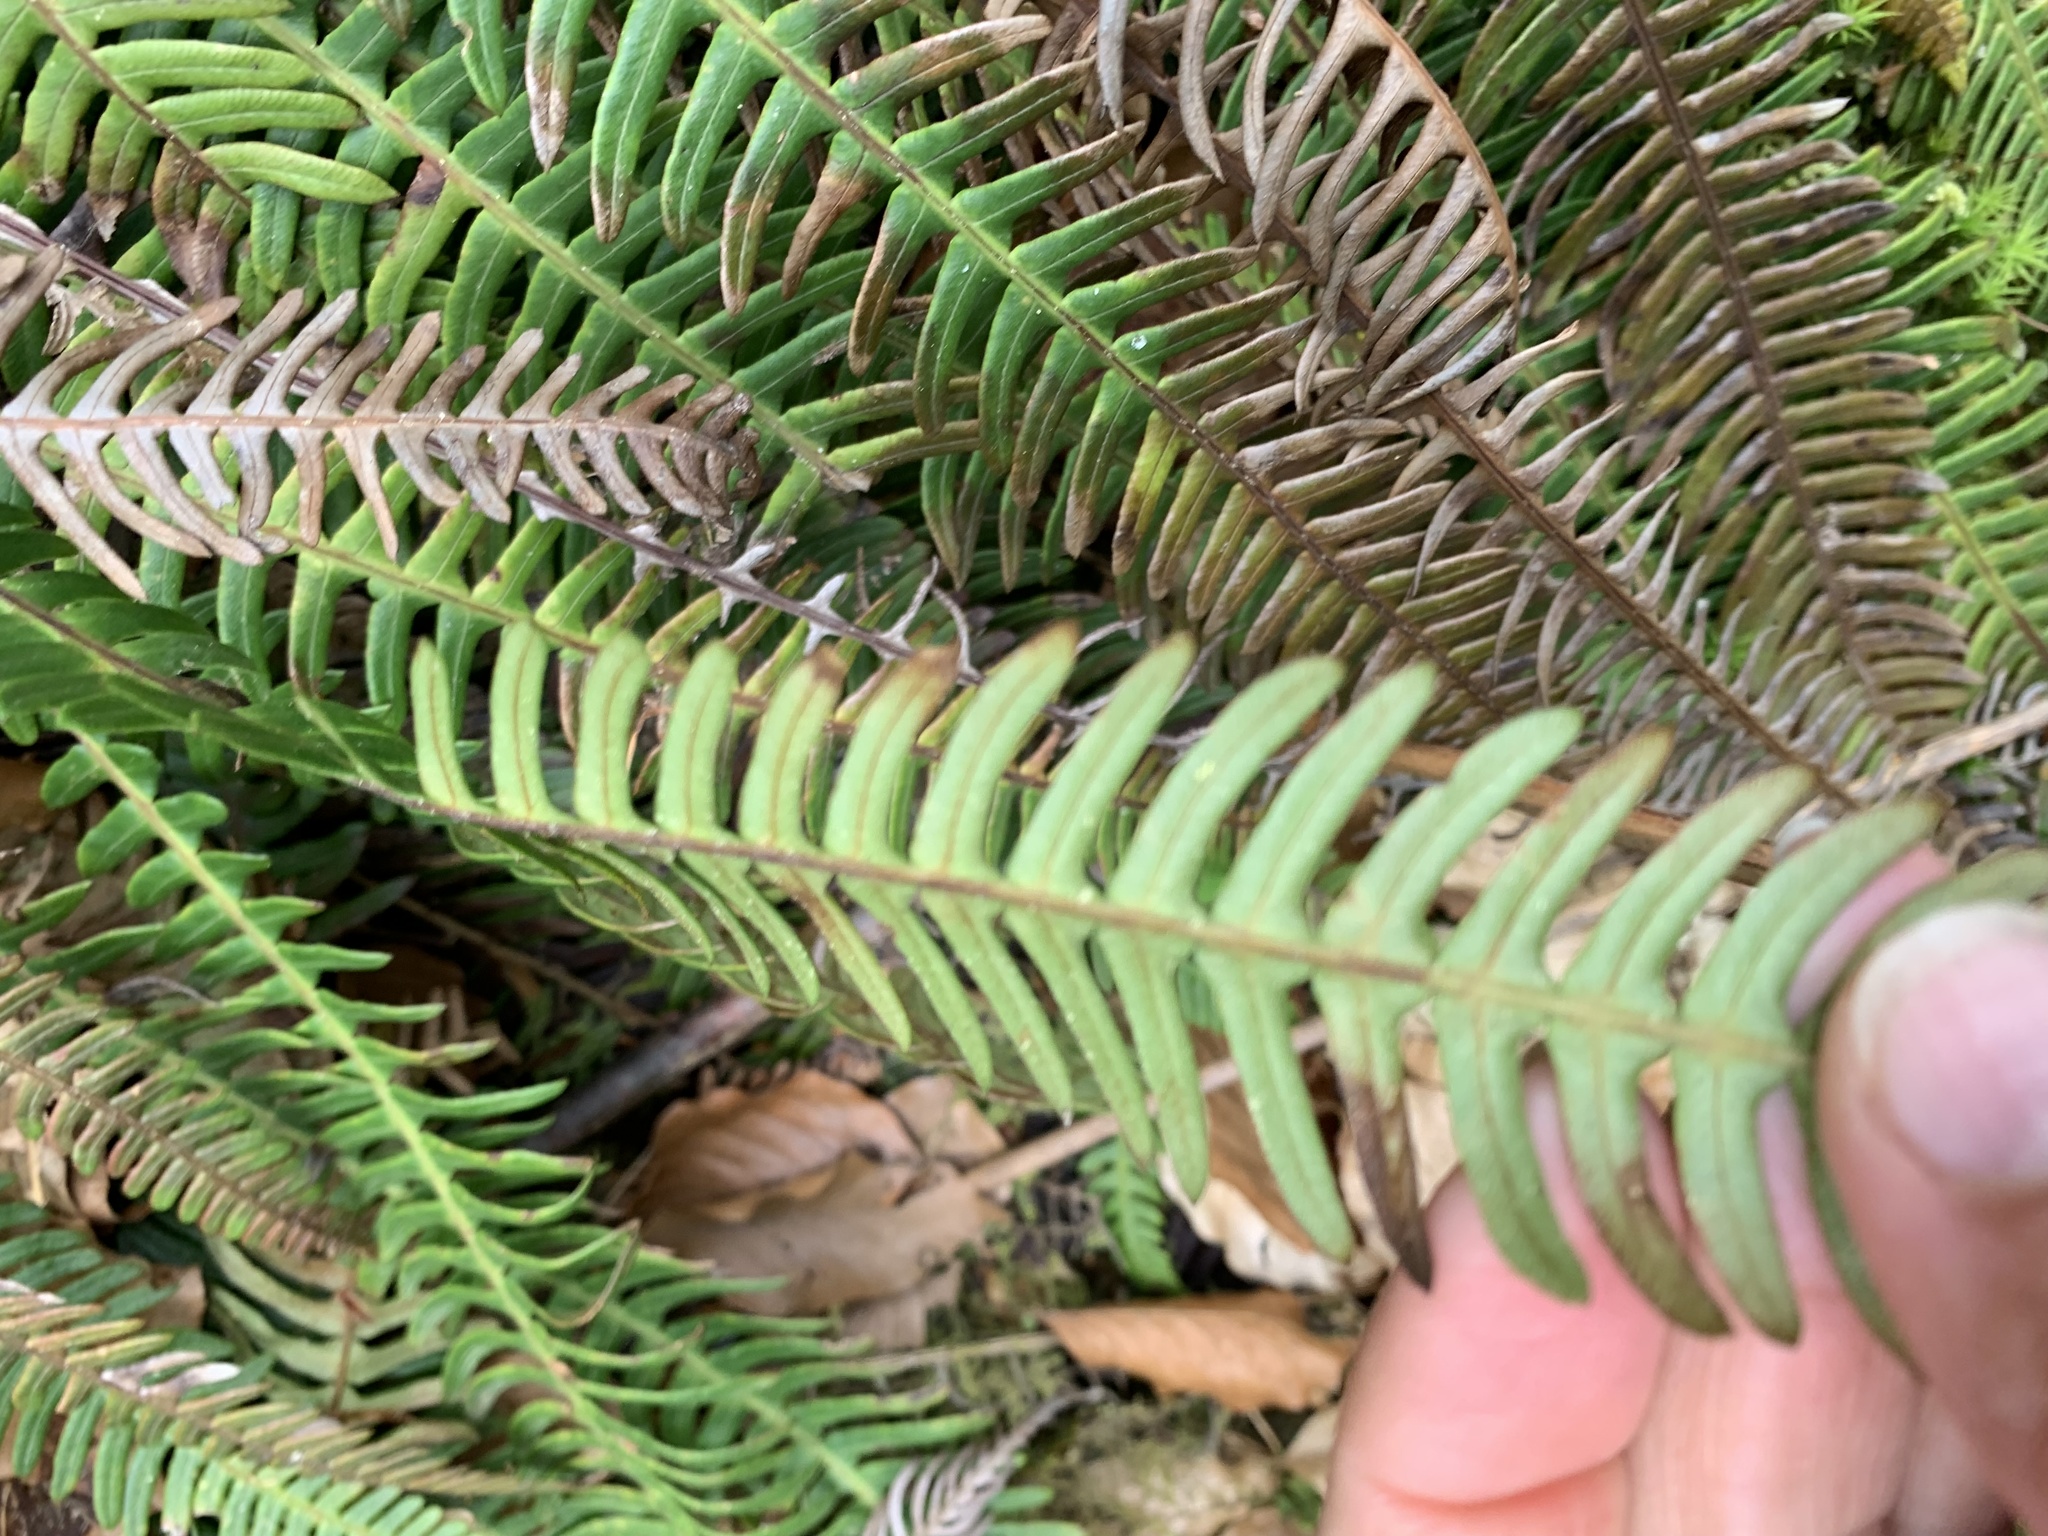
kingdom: Plantae
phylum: Tracheophyta
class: Polypodiopsida
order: Polypodiales
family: Blechnaceae
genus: Struthiopteris
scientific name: Struthiopteris spicant
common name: Deer fern
